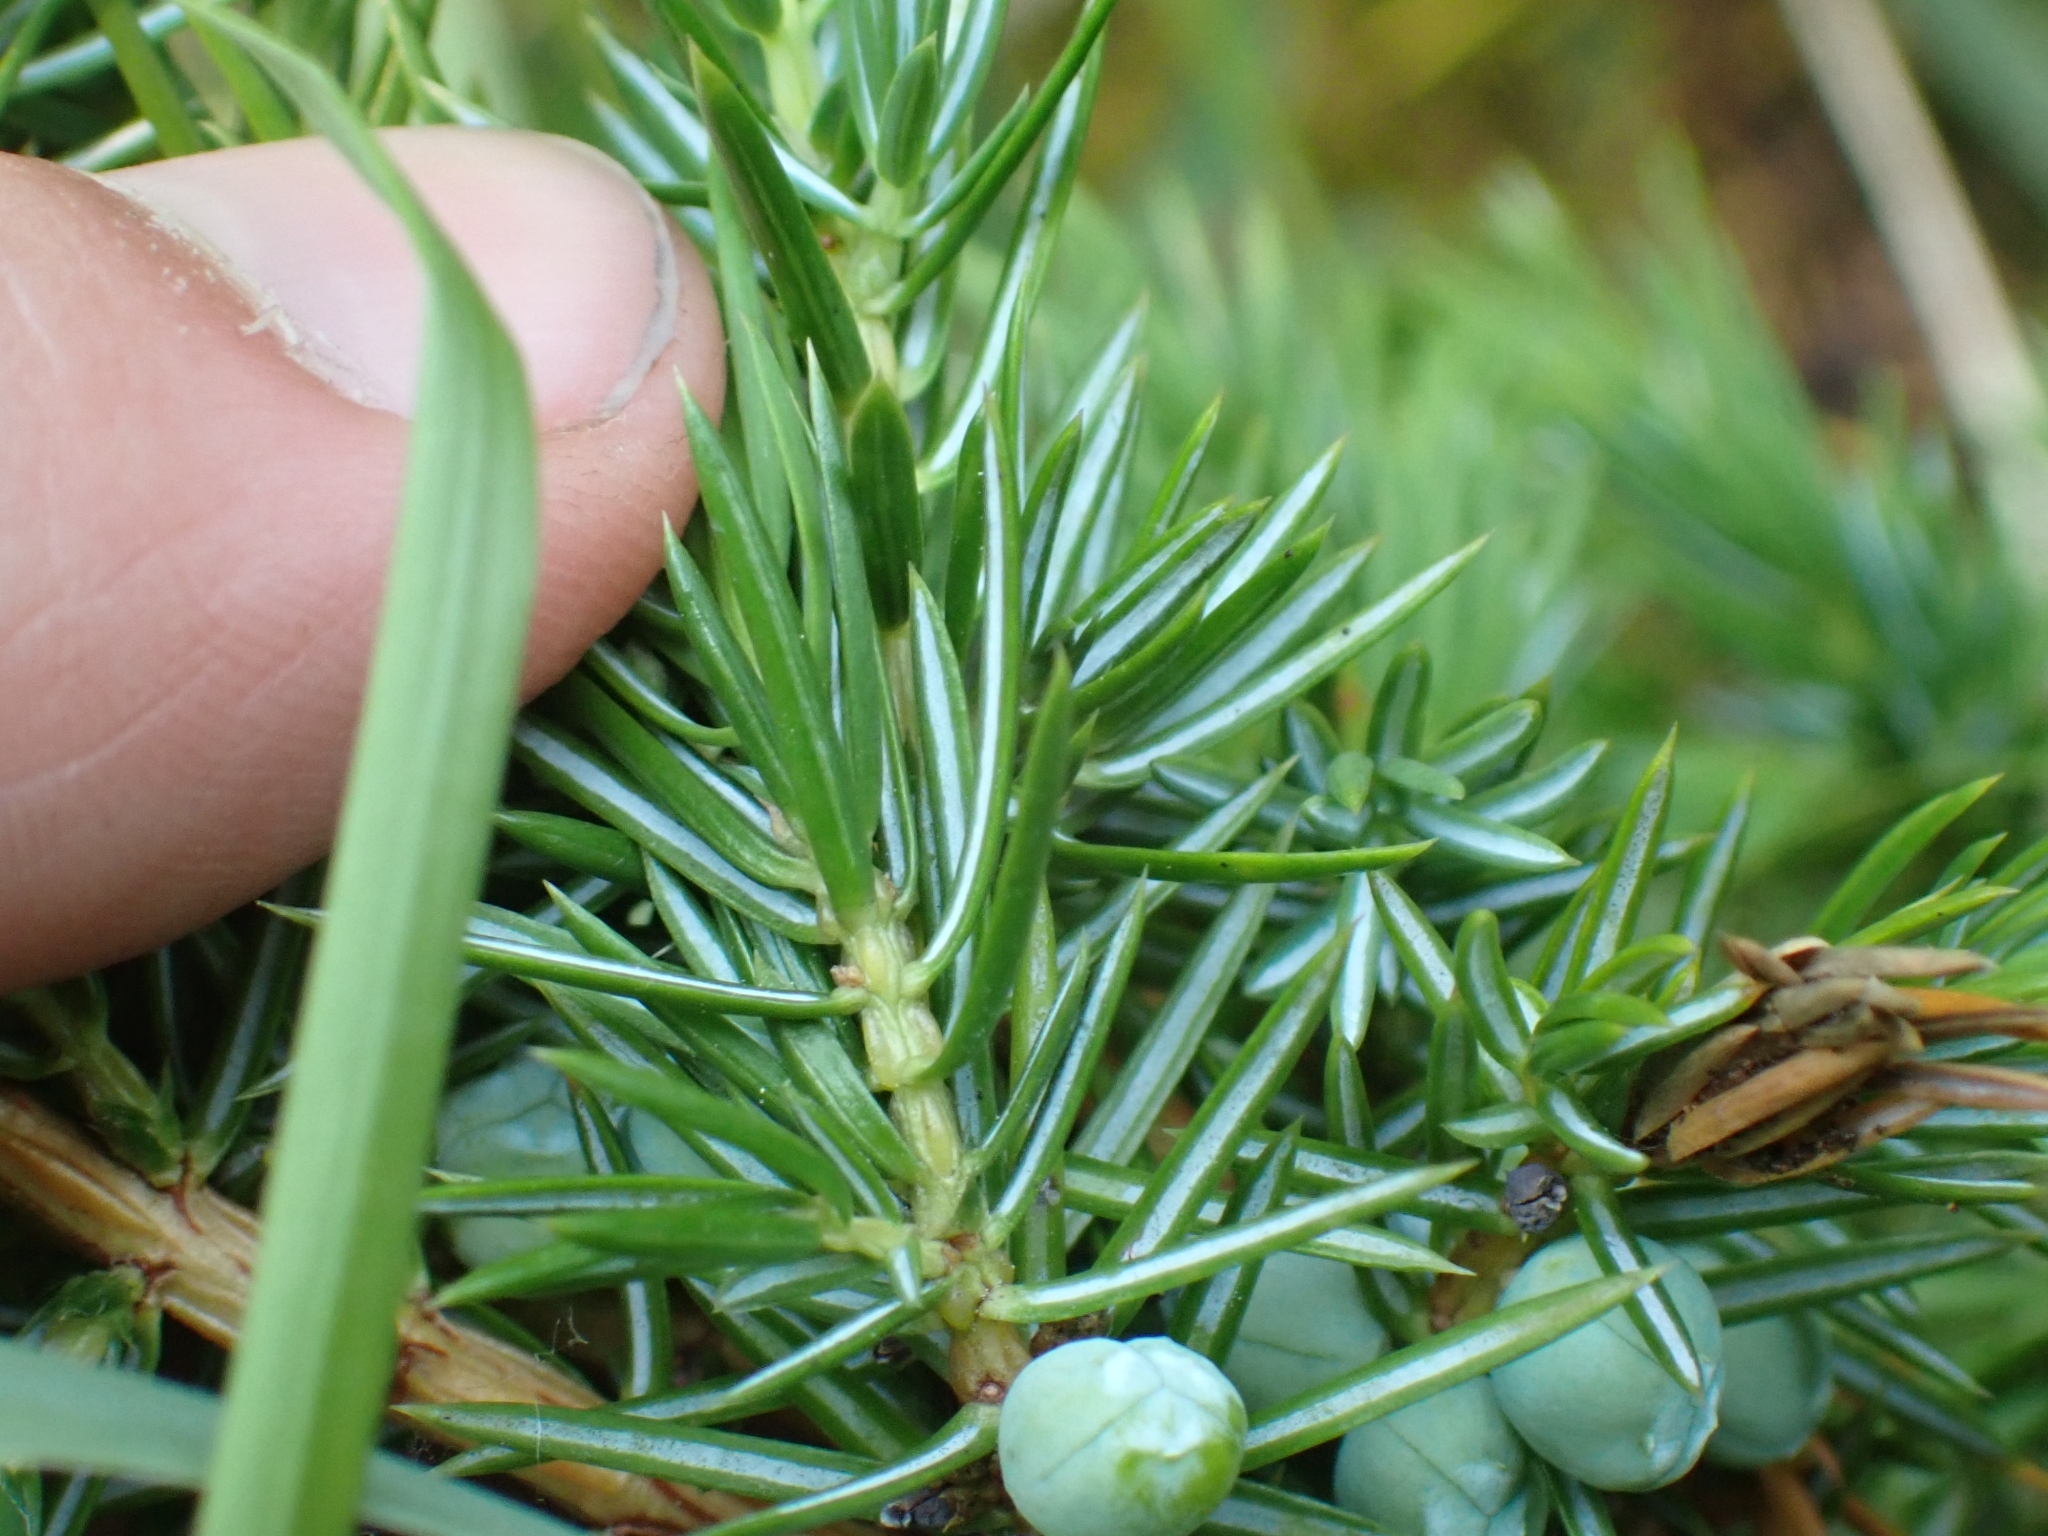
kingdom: Plantae
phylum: Tracheophyta
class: Pinopsida
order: Pinales
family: Cupressaceae
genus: Juniperus
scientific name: Juniperus communis
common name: Common juniper
